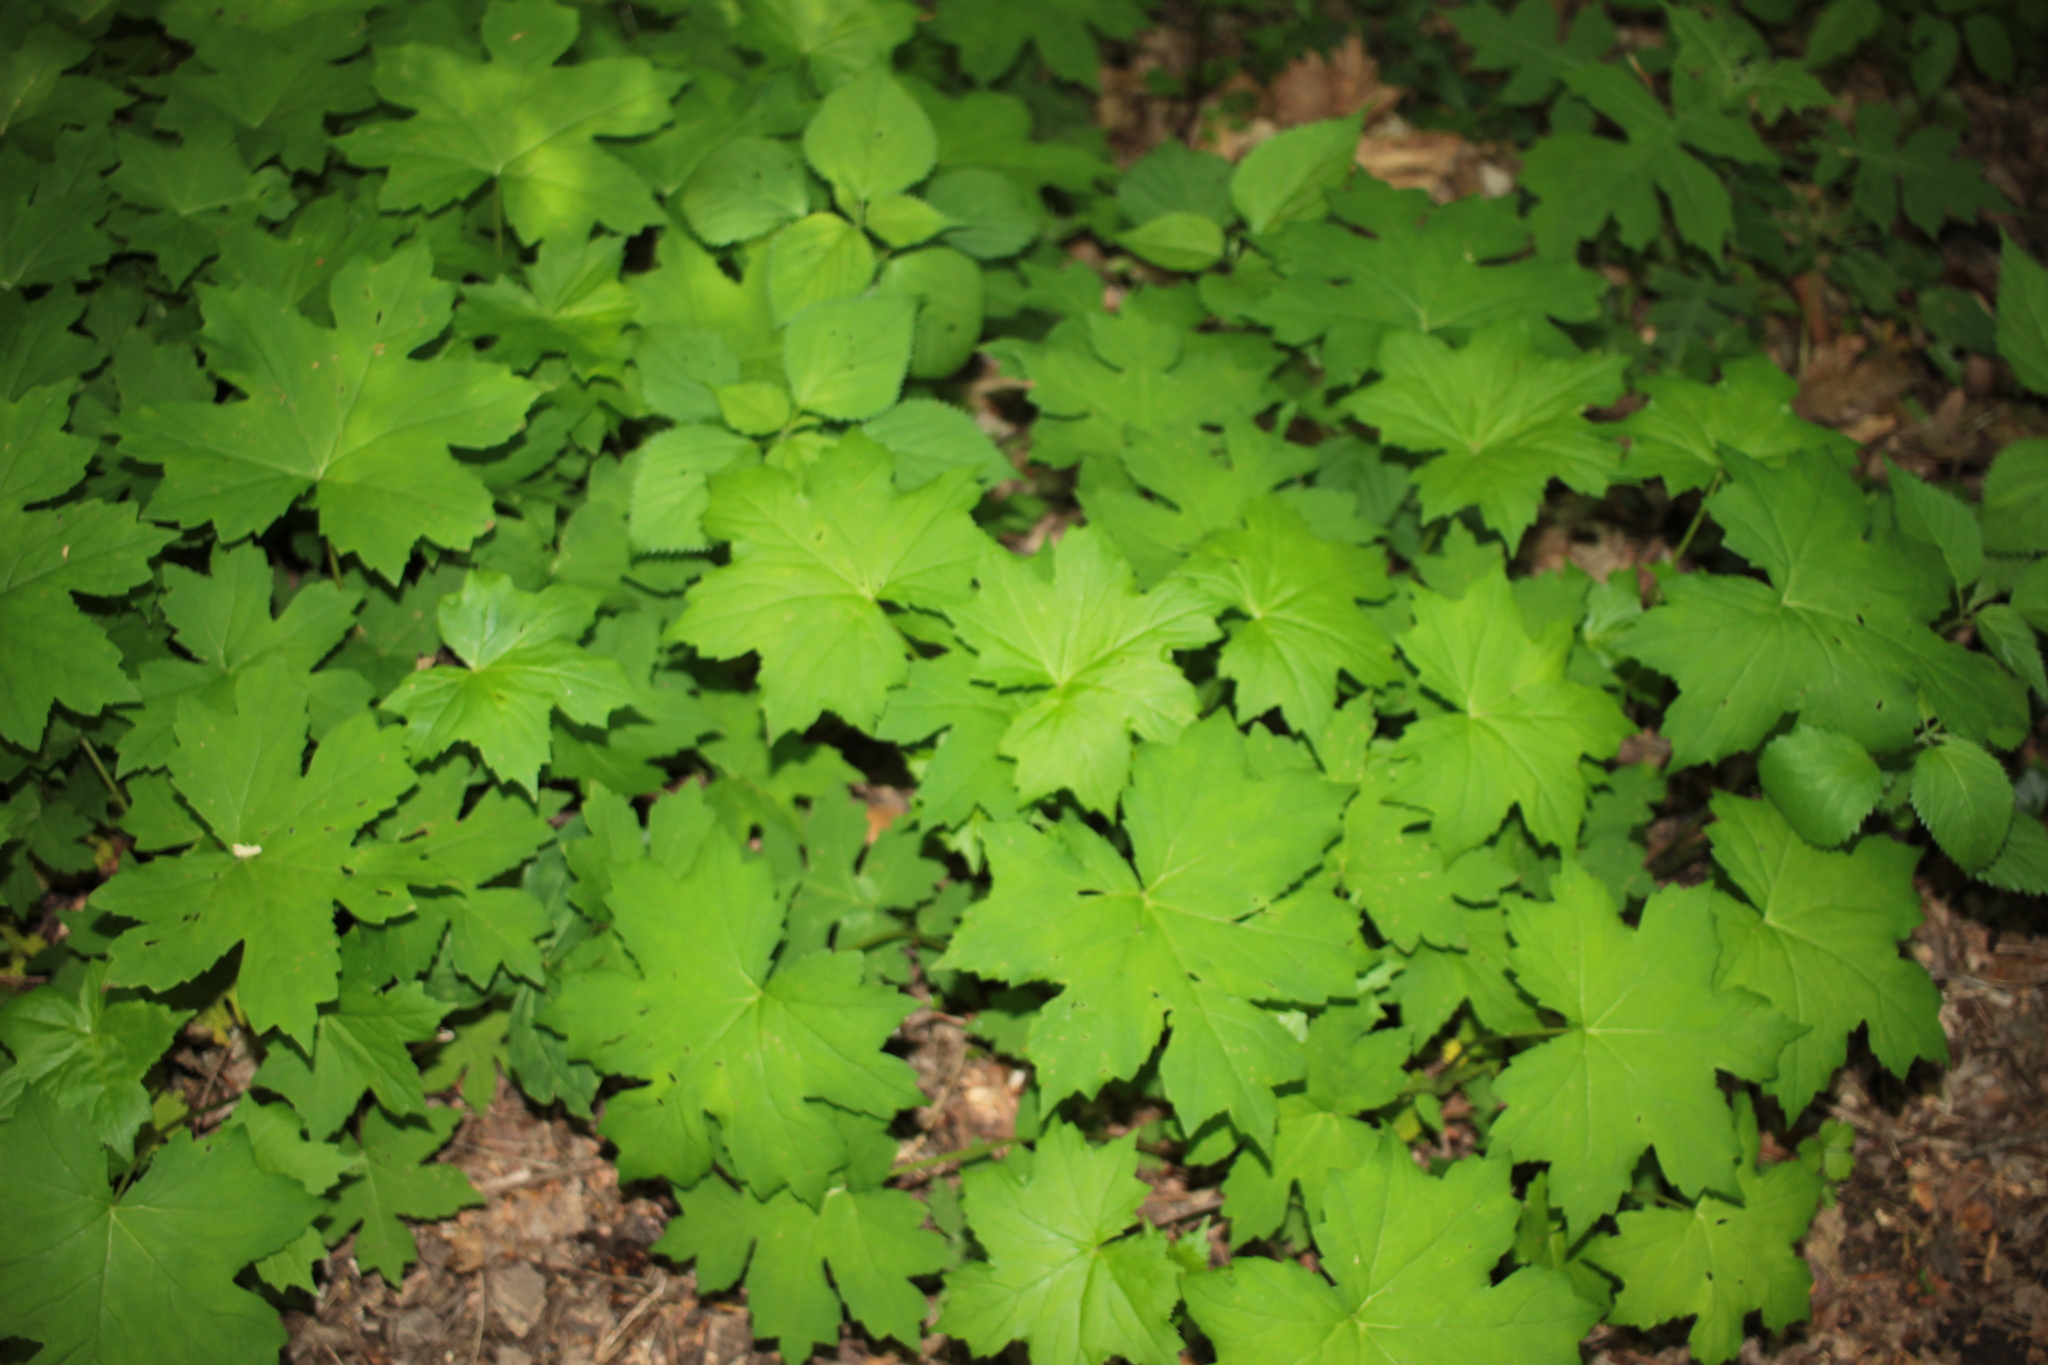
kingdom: Plantae
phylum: Tracheophyta
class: Magnoliopsida
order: Boraginales
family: Hydrophyllaceae
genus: Hydrophyllum
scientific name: Hydrophyllum canadense
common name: Canada waterleaf
